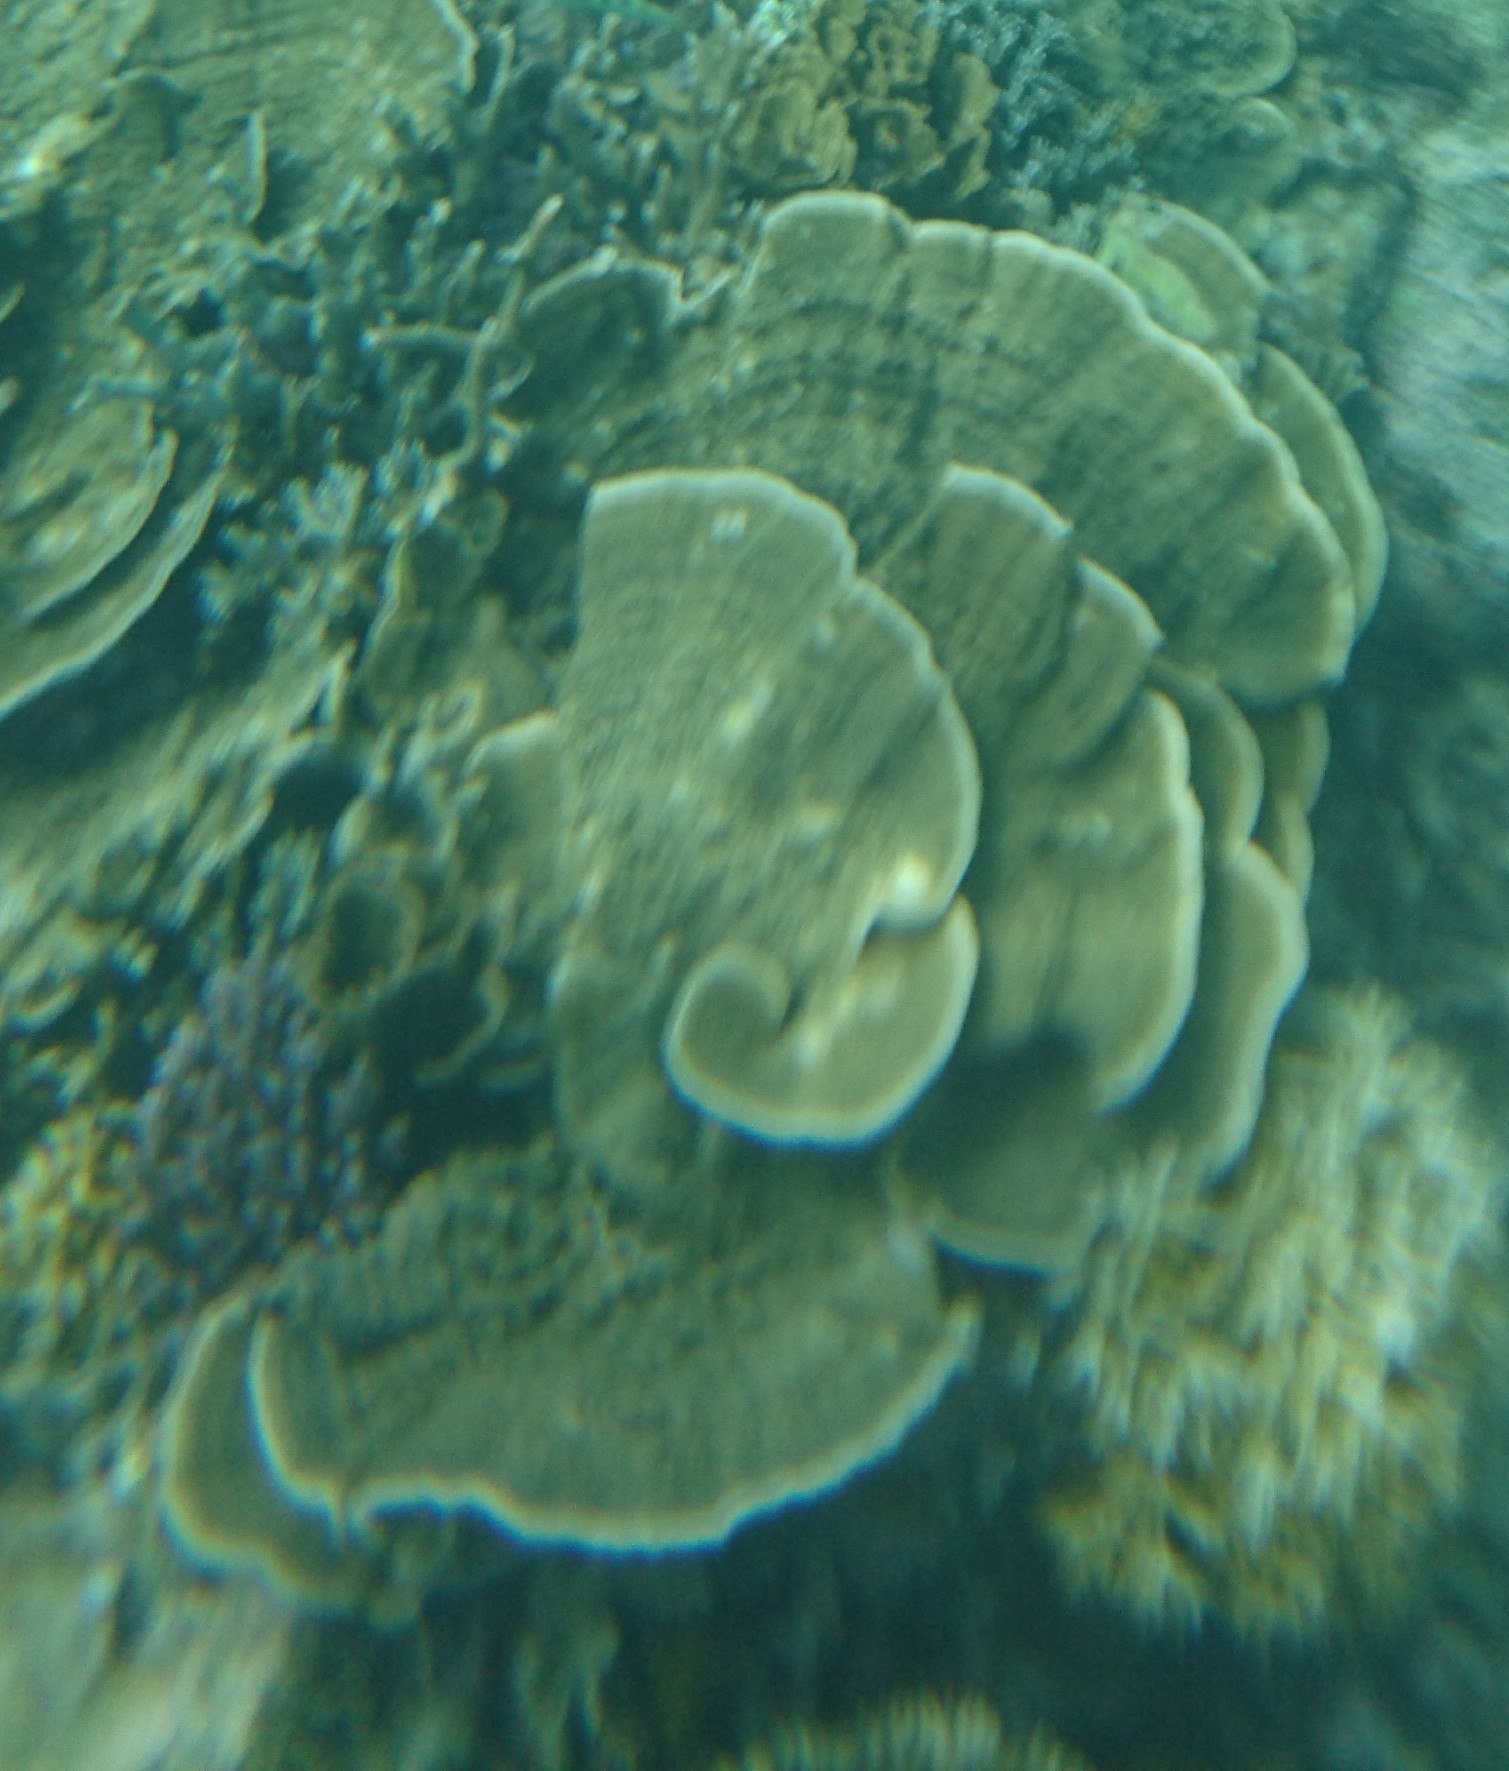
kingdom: Animalia
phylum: Cnidaria
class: Anthozoa
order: Scleractinia
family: Acroporidae
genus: Montipora
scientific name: Montipora
